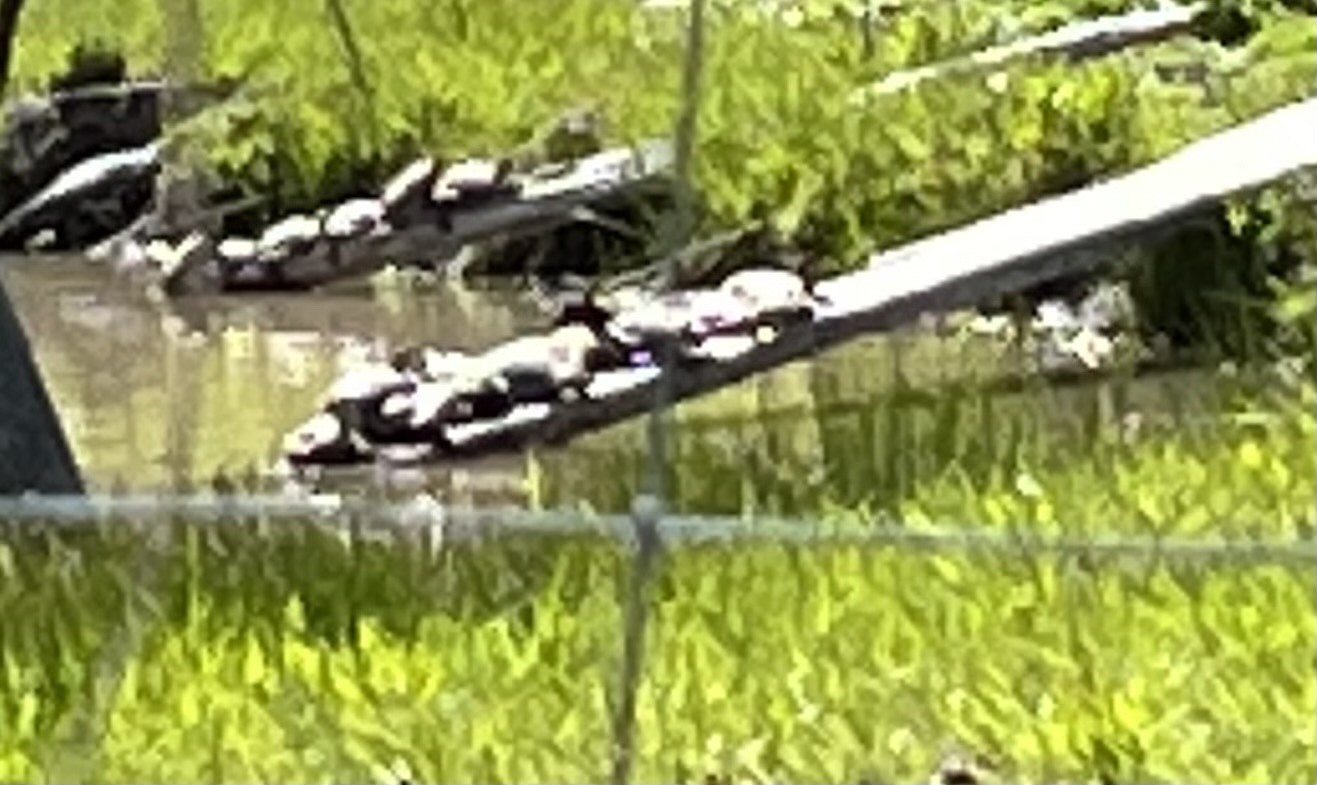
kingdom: Animalia
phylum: Chordata
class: Testudines
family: Emydidae
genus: Actinemys
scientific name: Actinemys marmorata
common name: Western pond turtle
